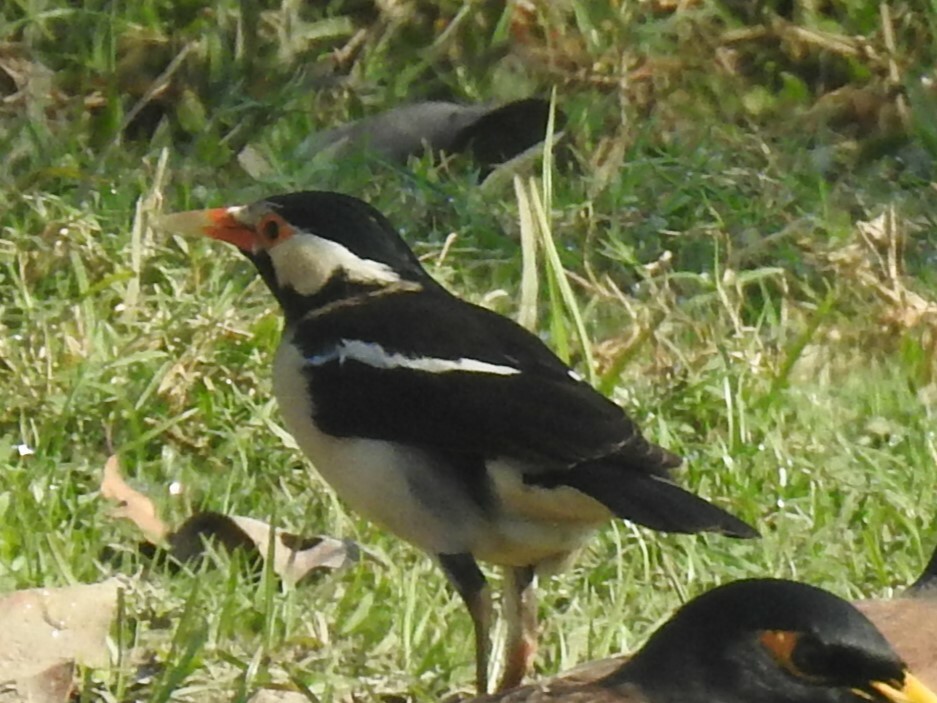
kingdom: Animalia
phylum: Chordata
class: Aves
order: Passeriformes
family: Sturnidae
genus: Gracupica
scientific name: Gracupica contra
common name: Pied myna
